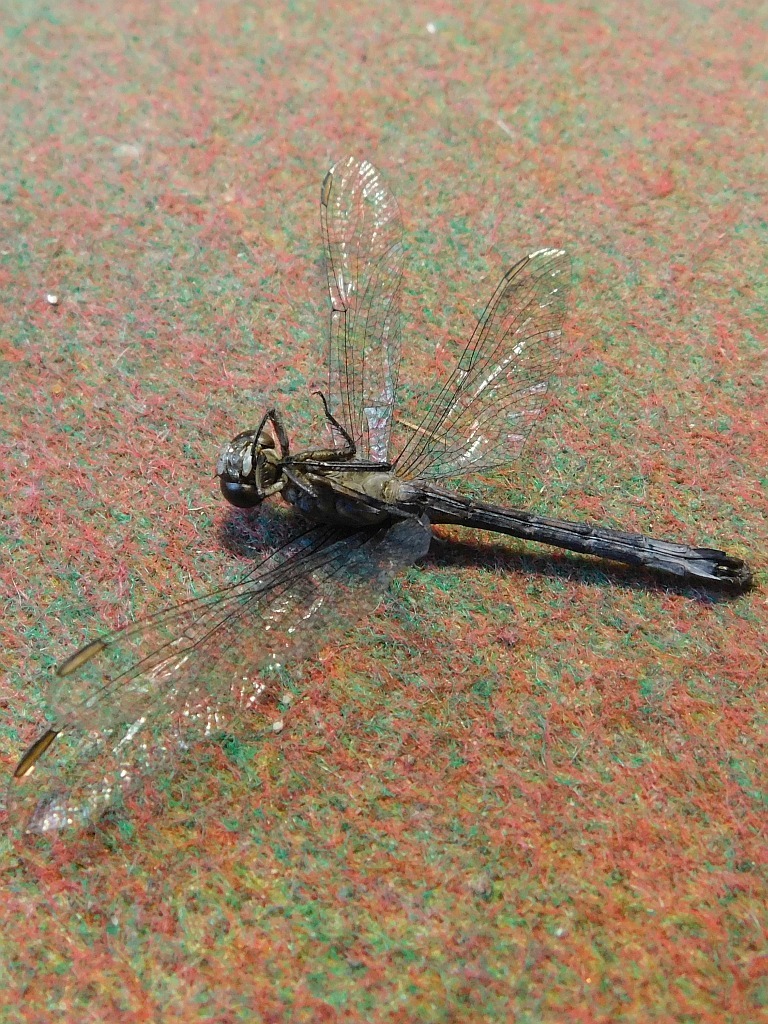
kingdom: Animalia
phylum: Arthropoda
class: Insecta
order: Odonata
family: Libellulidae
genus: Orthetrum
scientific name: Orthetrum julia
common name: Julia skimmer
